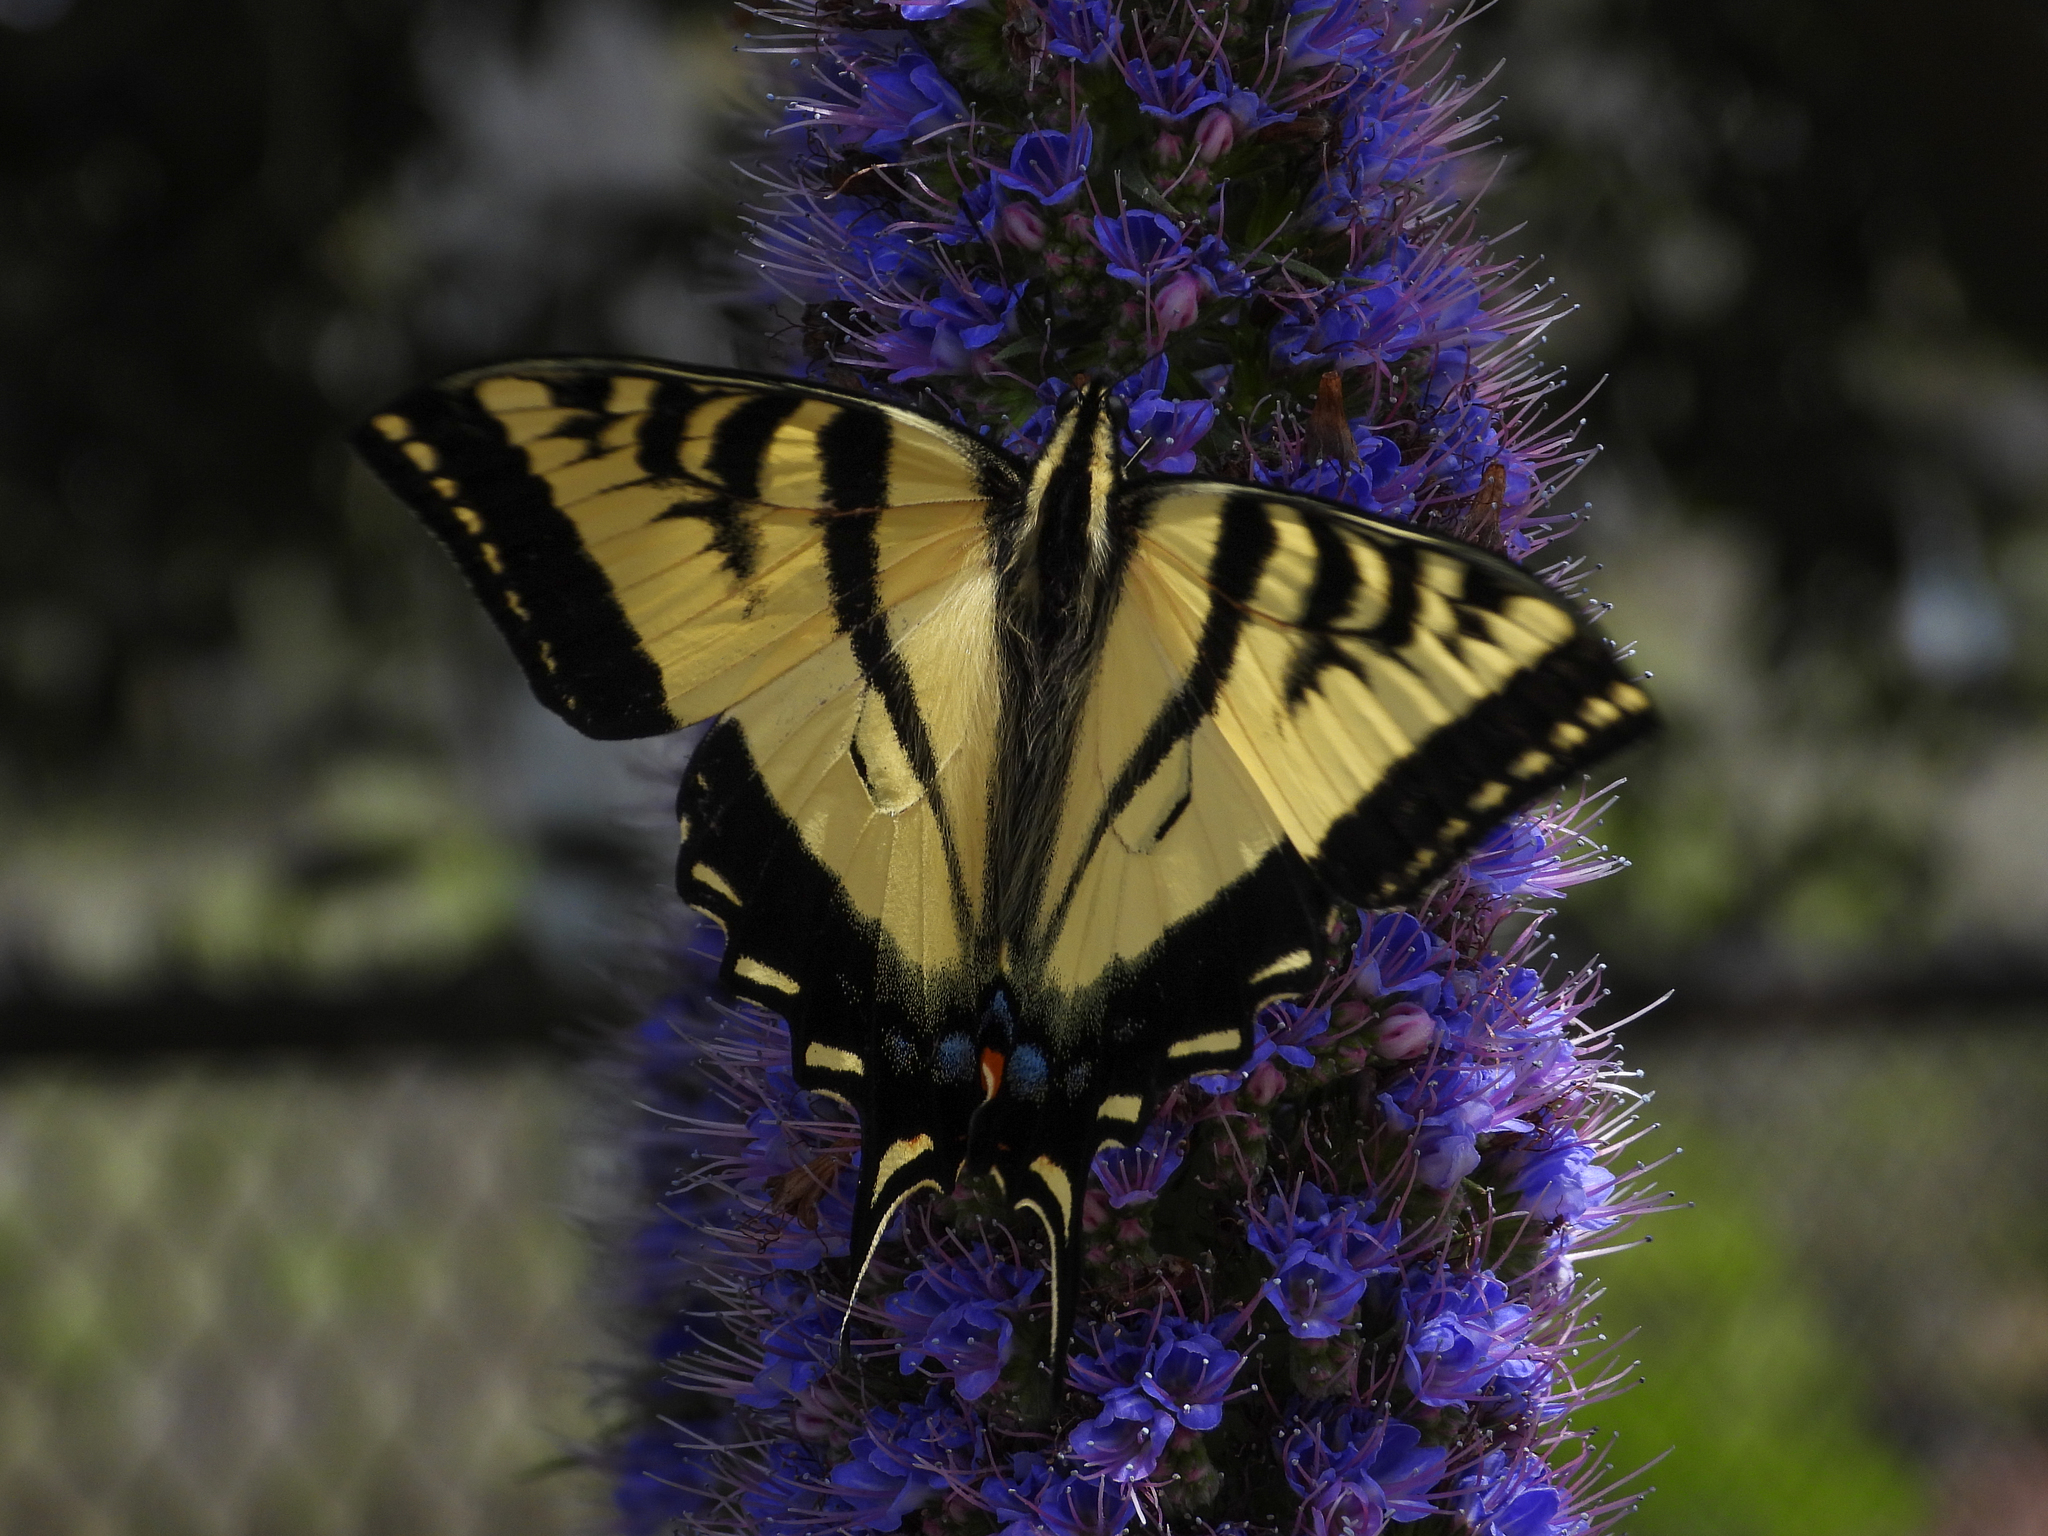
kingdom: Animalia
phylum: Arthropoda
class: Insecta
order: Lepidoptera
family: Papilionidae
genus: Papilio
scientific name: Papilio rutulus
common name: Western tiger swallowtail
